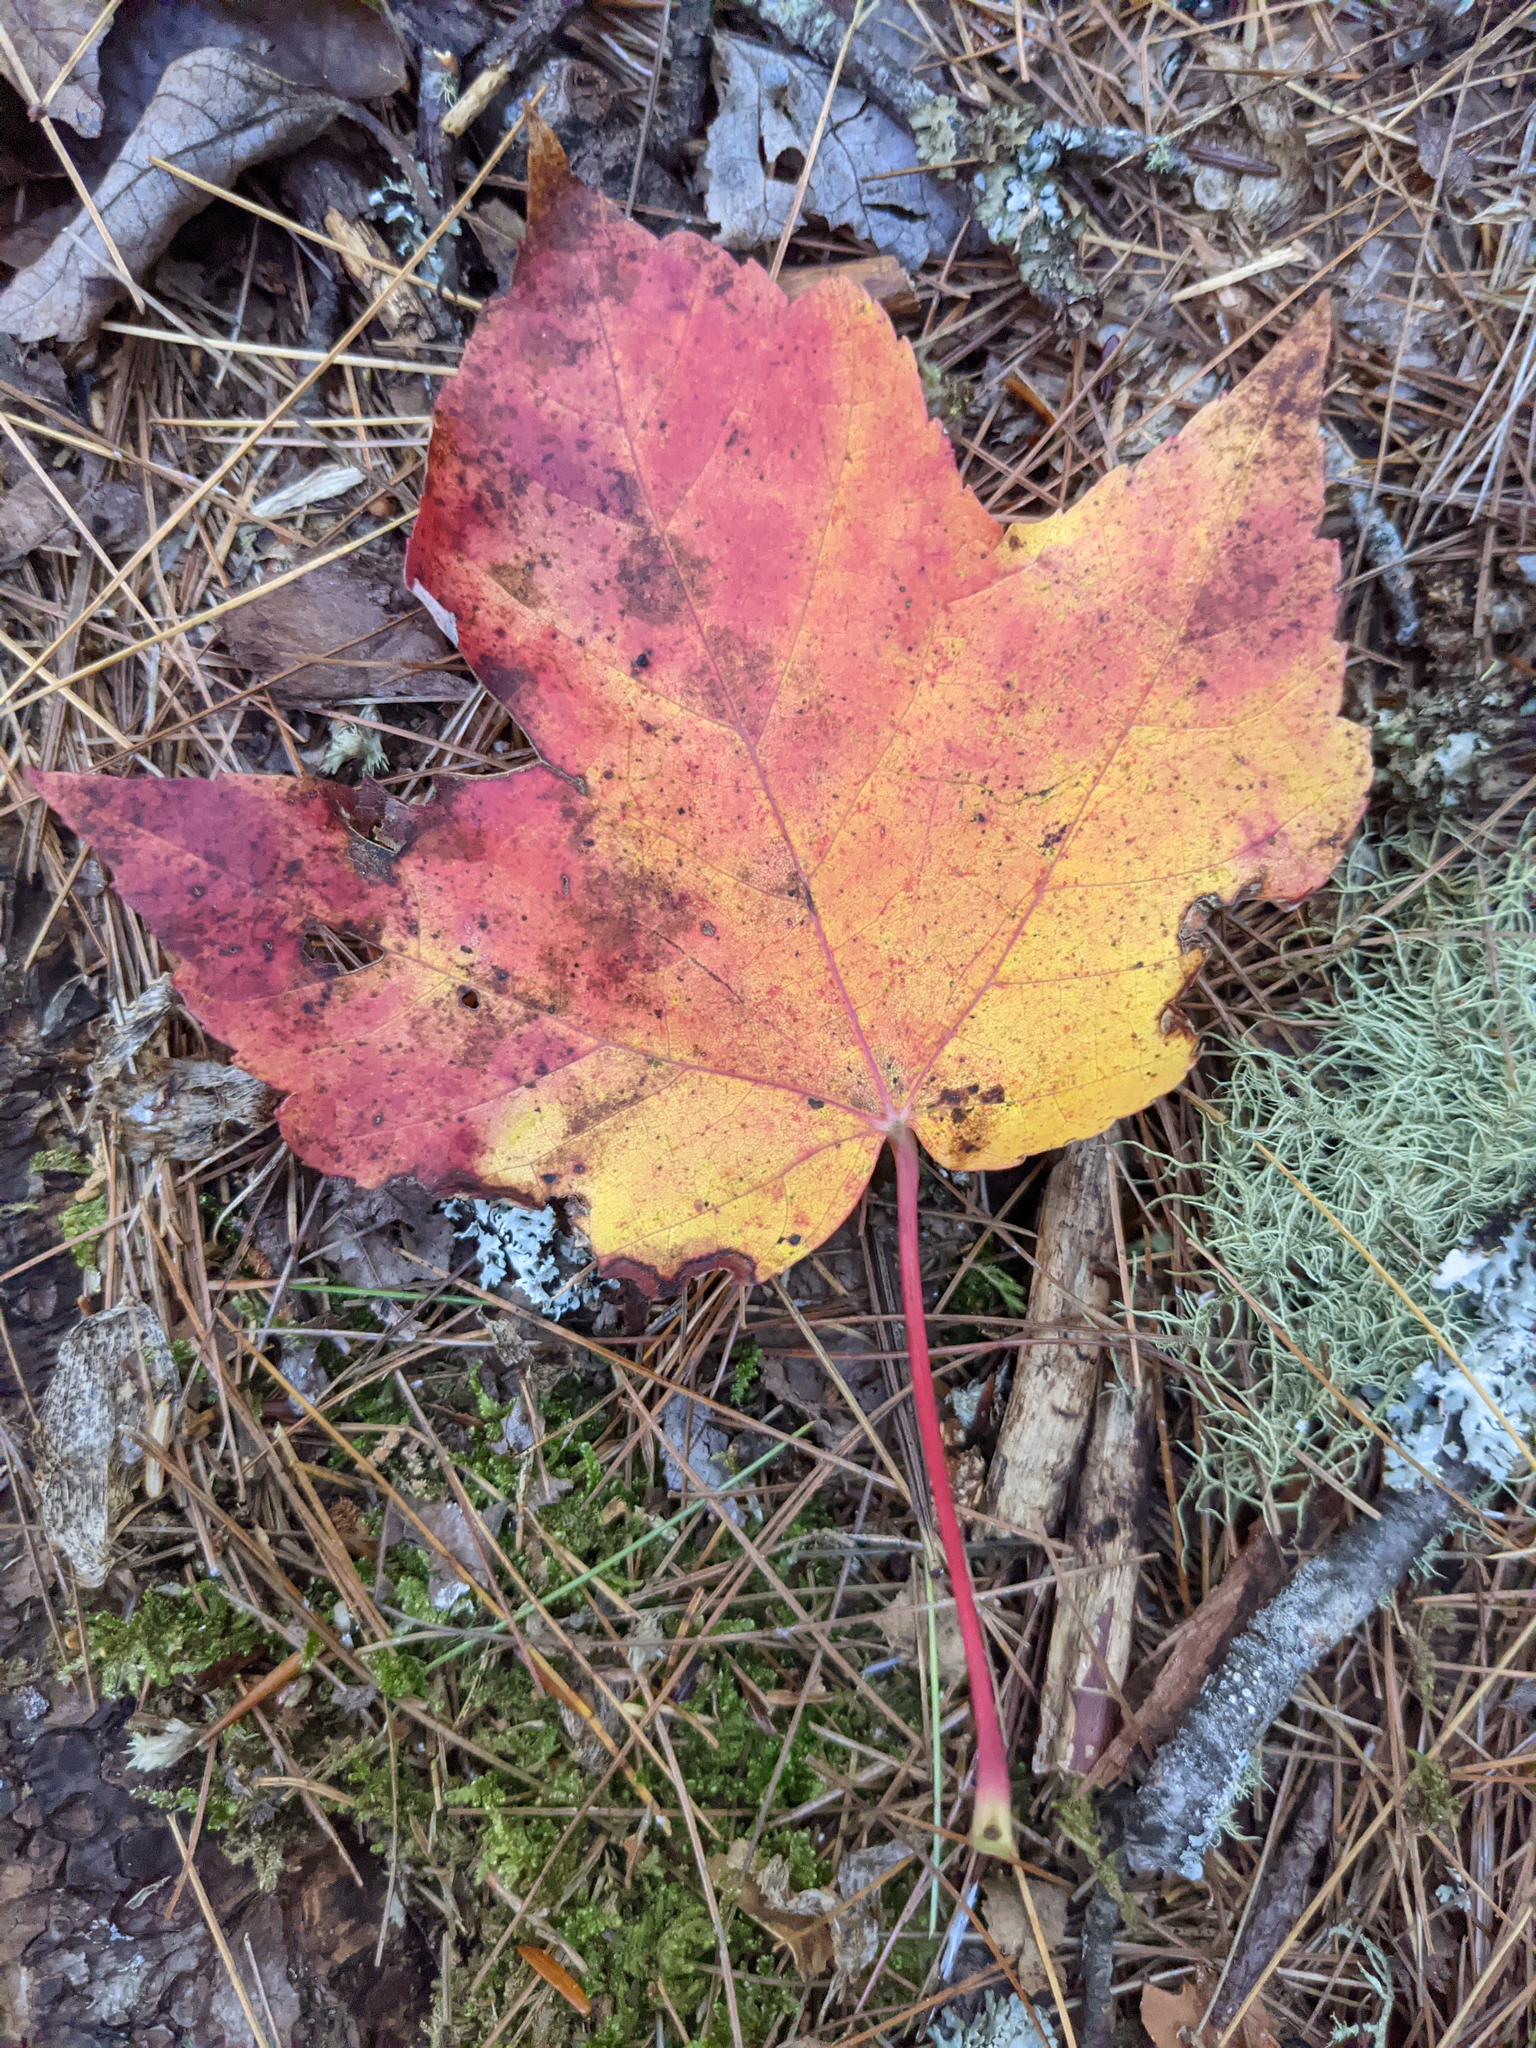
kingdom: Plantae
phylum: Tracheophyta
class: Magnoliopsida
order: Sapindales
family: Sapindaceae
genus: Acer
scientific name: Acer rubrum
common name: Red maple
